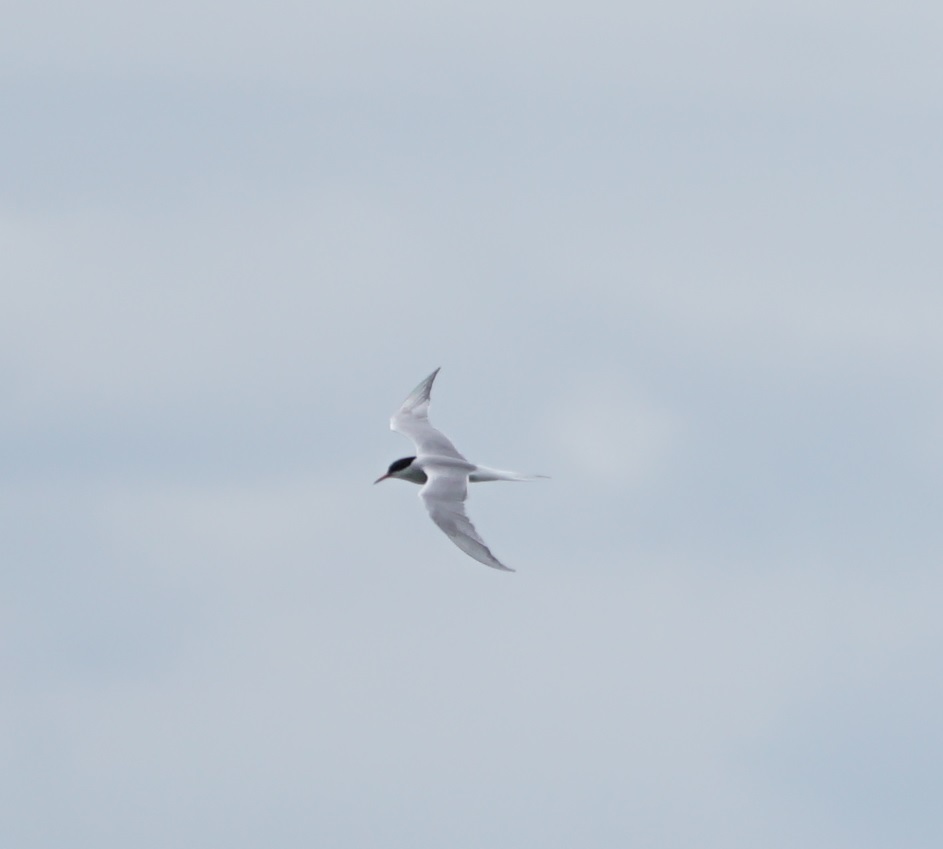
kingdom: Animalia
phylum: Chordata
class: Aves
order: Charadriiformes
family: Laridae
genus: Sterna
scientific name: Sterna hirundo
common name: Common tern
